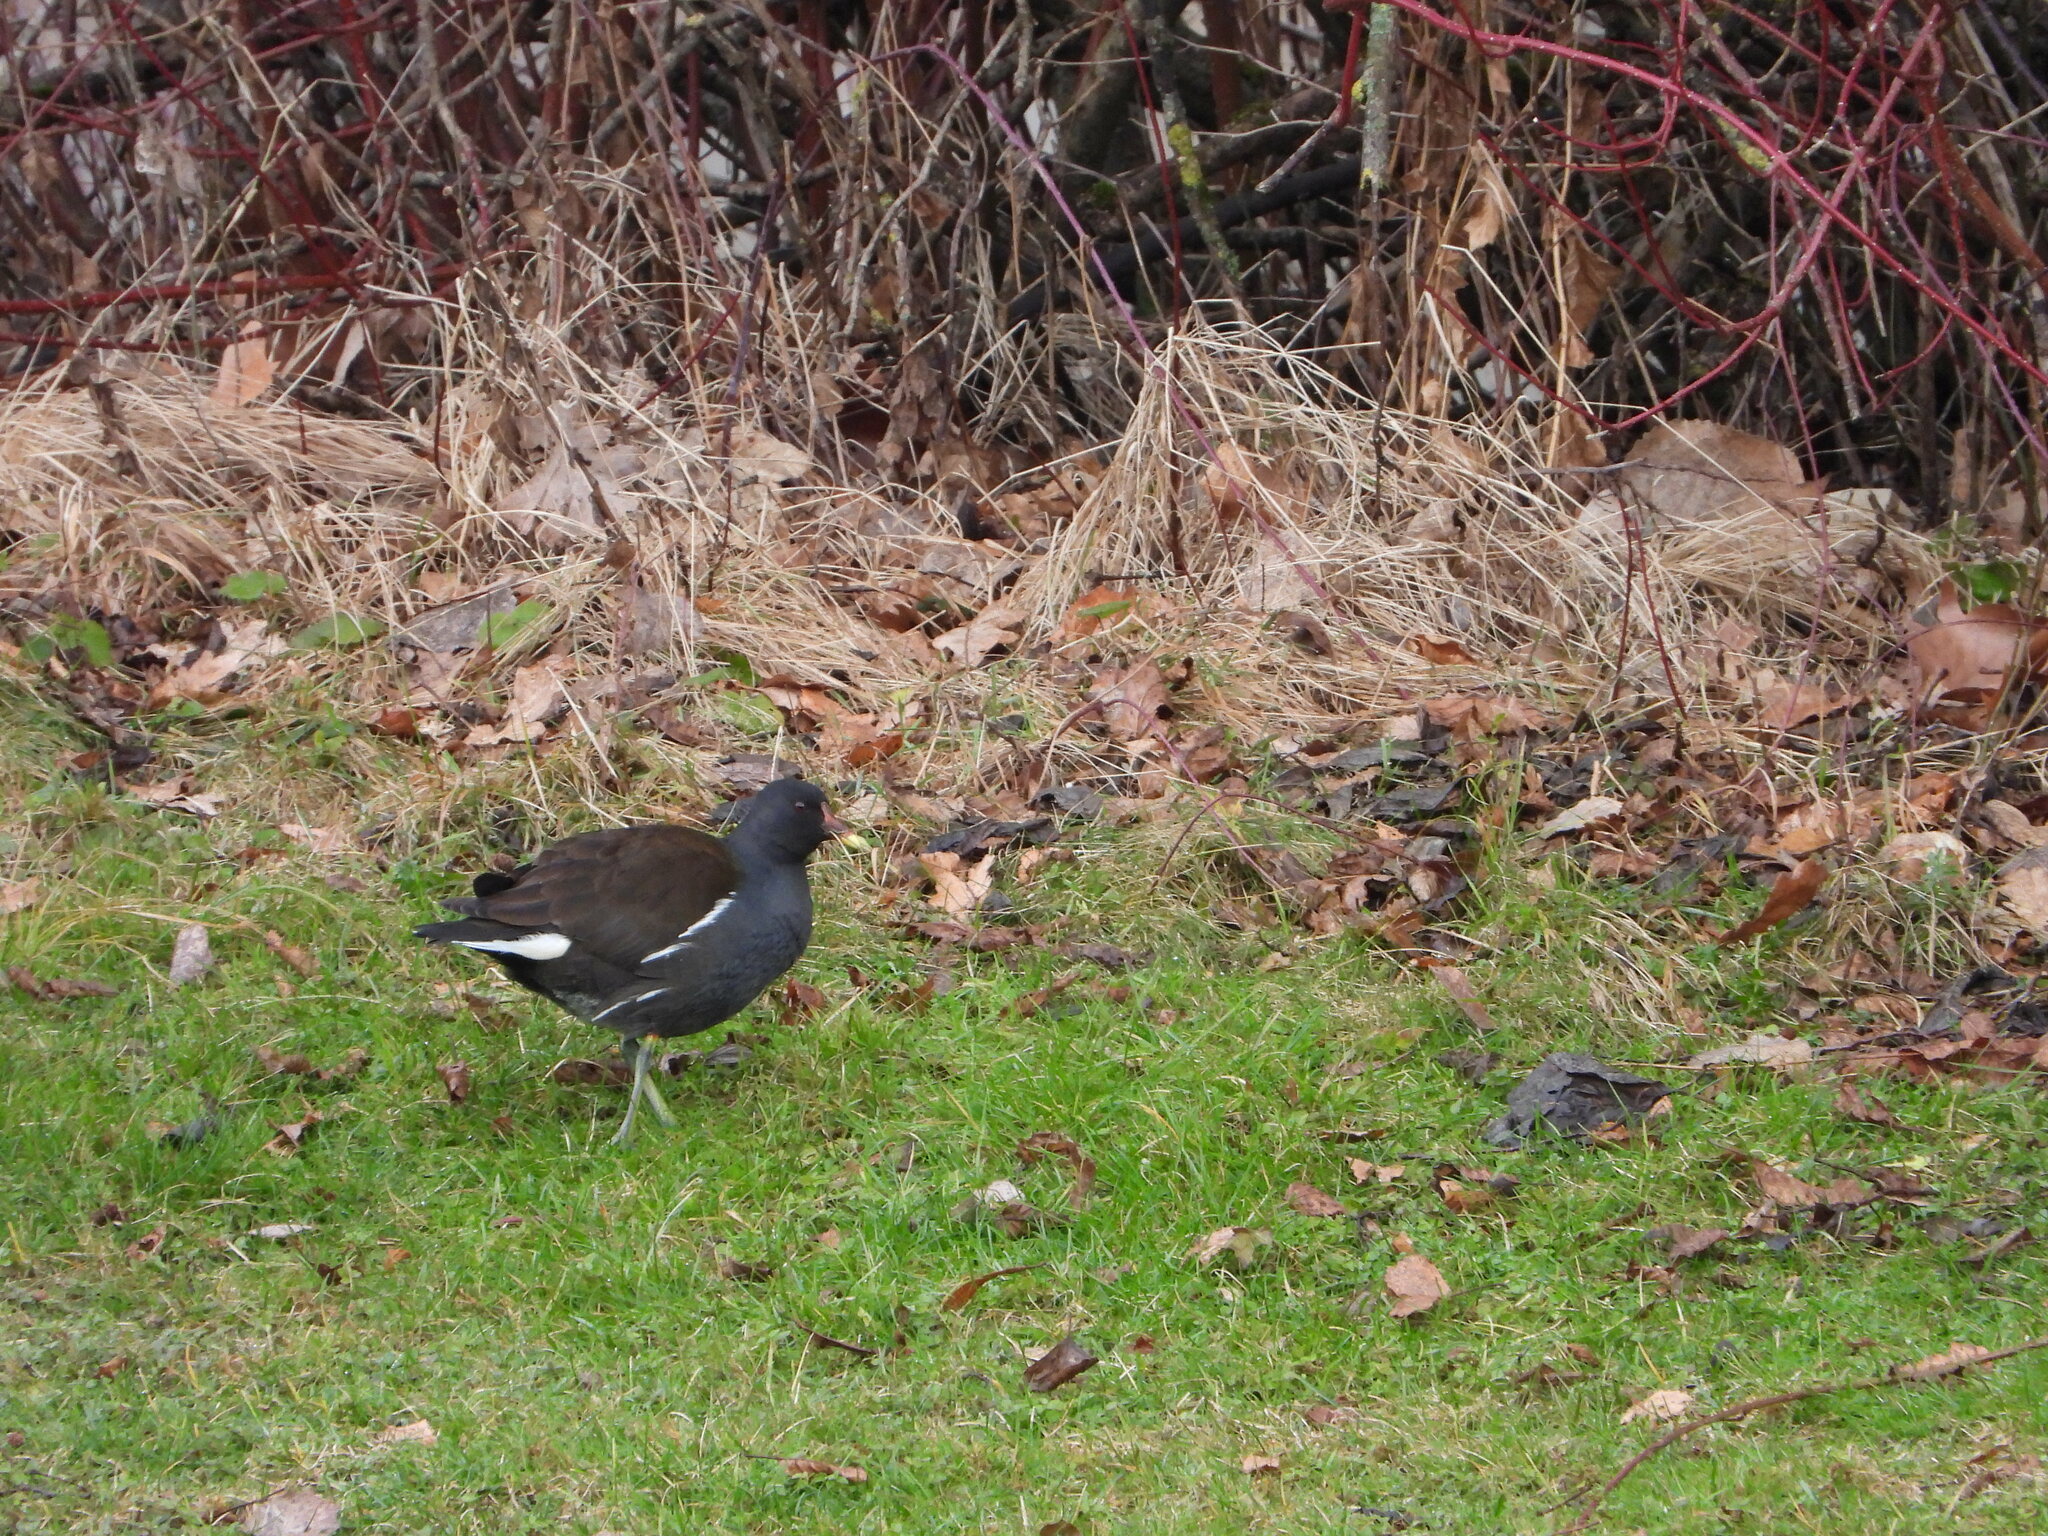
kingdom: Animalia
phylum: Chordata
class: Aves
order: Gruiformes
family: Rallidae
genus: Gallinula
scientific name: Gallinula chloropus
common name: Common moorhen
